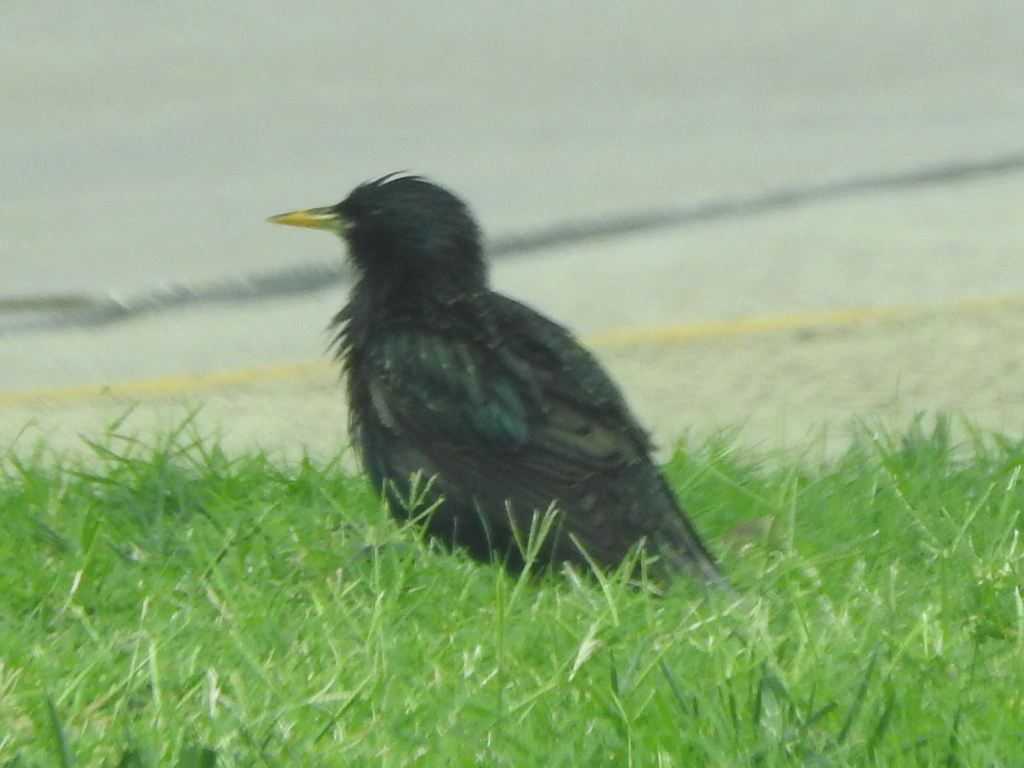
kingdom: Animalia
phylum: Chordata
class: Aves
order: Passeriformes
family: Sturnidae
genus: Sturnus
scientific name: Sturnus vulgaris
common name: Common starling
